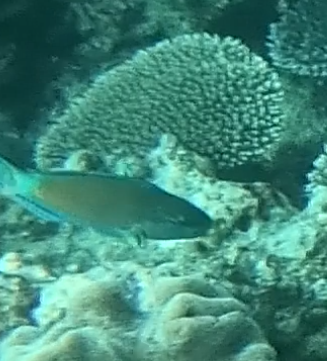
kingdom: Animalia
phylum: Chordata
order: Perciformes
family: Scaridae
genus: Scarus
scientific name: Scarus frenatus
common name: Bridled parrotfish
